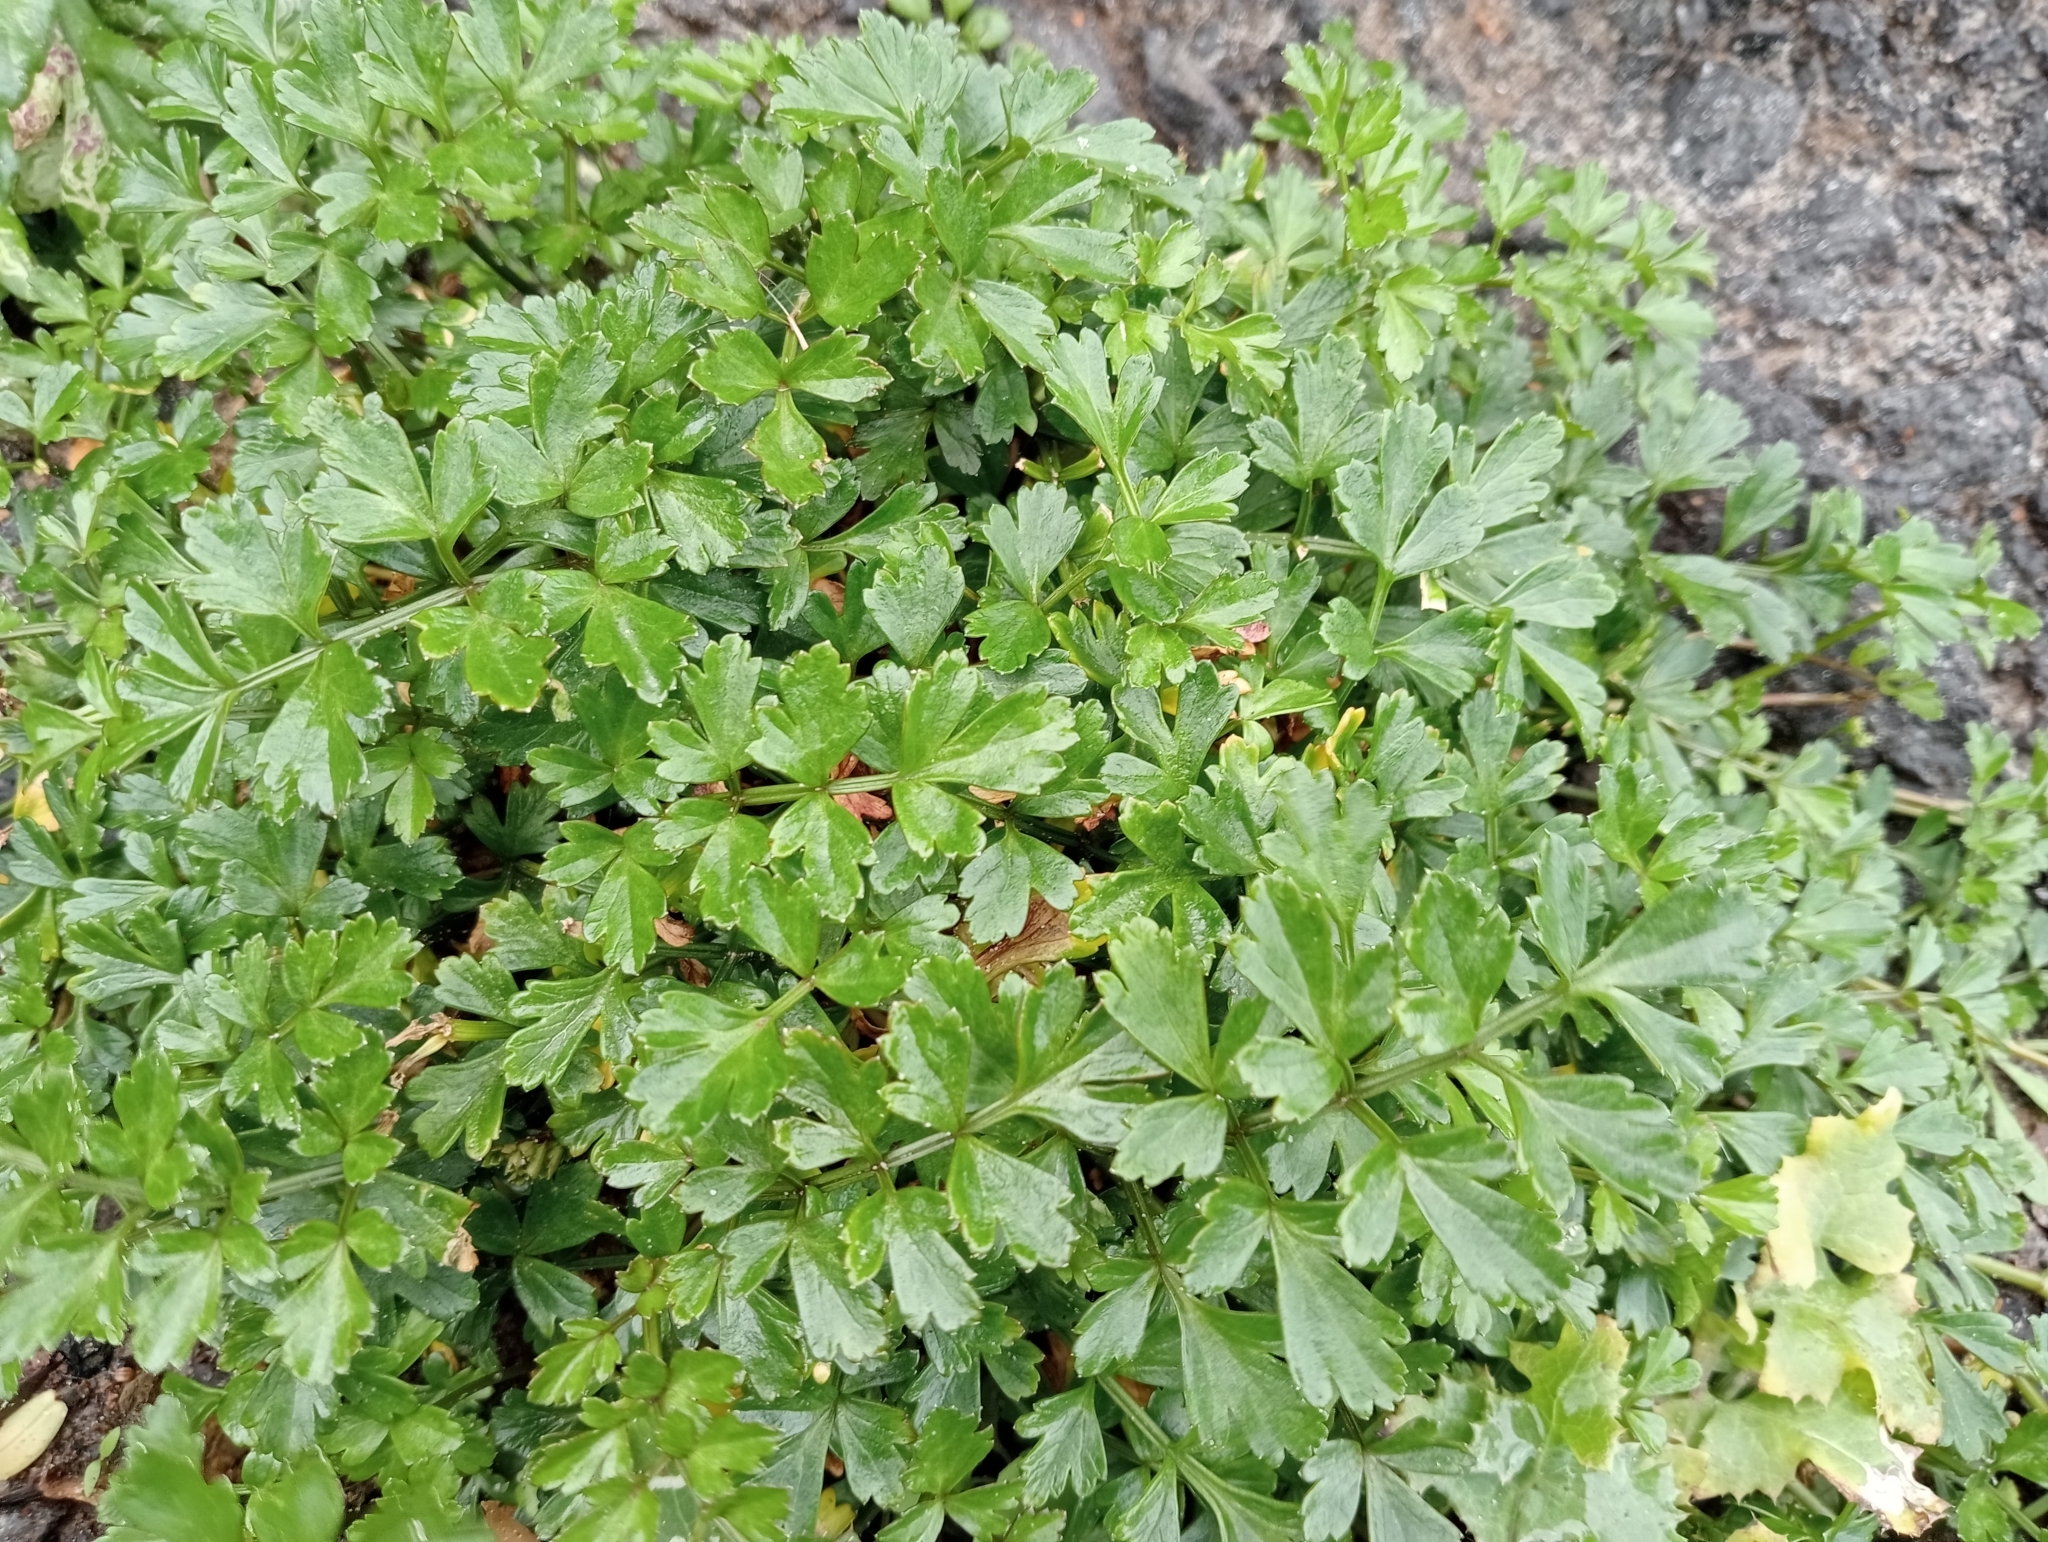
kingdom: Plantae
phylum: Tracheophyta
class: Magnoliopsida
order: Apiales
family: Apiaceae
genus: Apium
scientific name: Apium prostratum
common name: Prostrate marshwort
